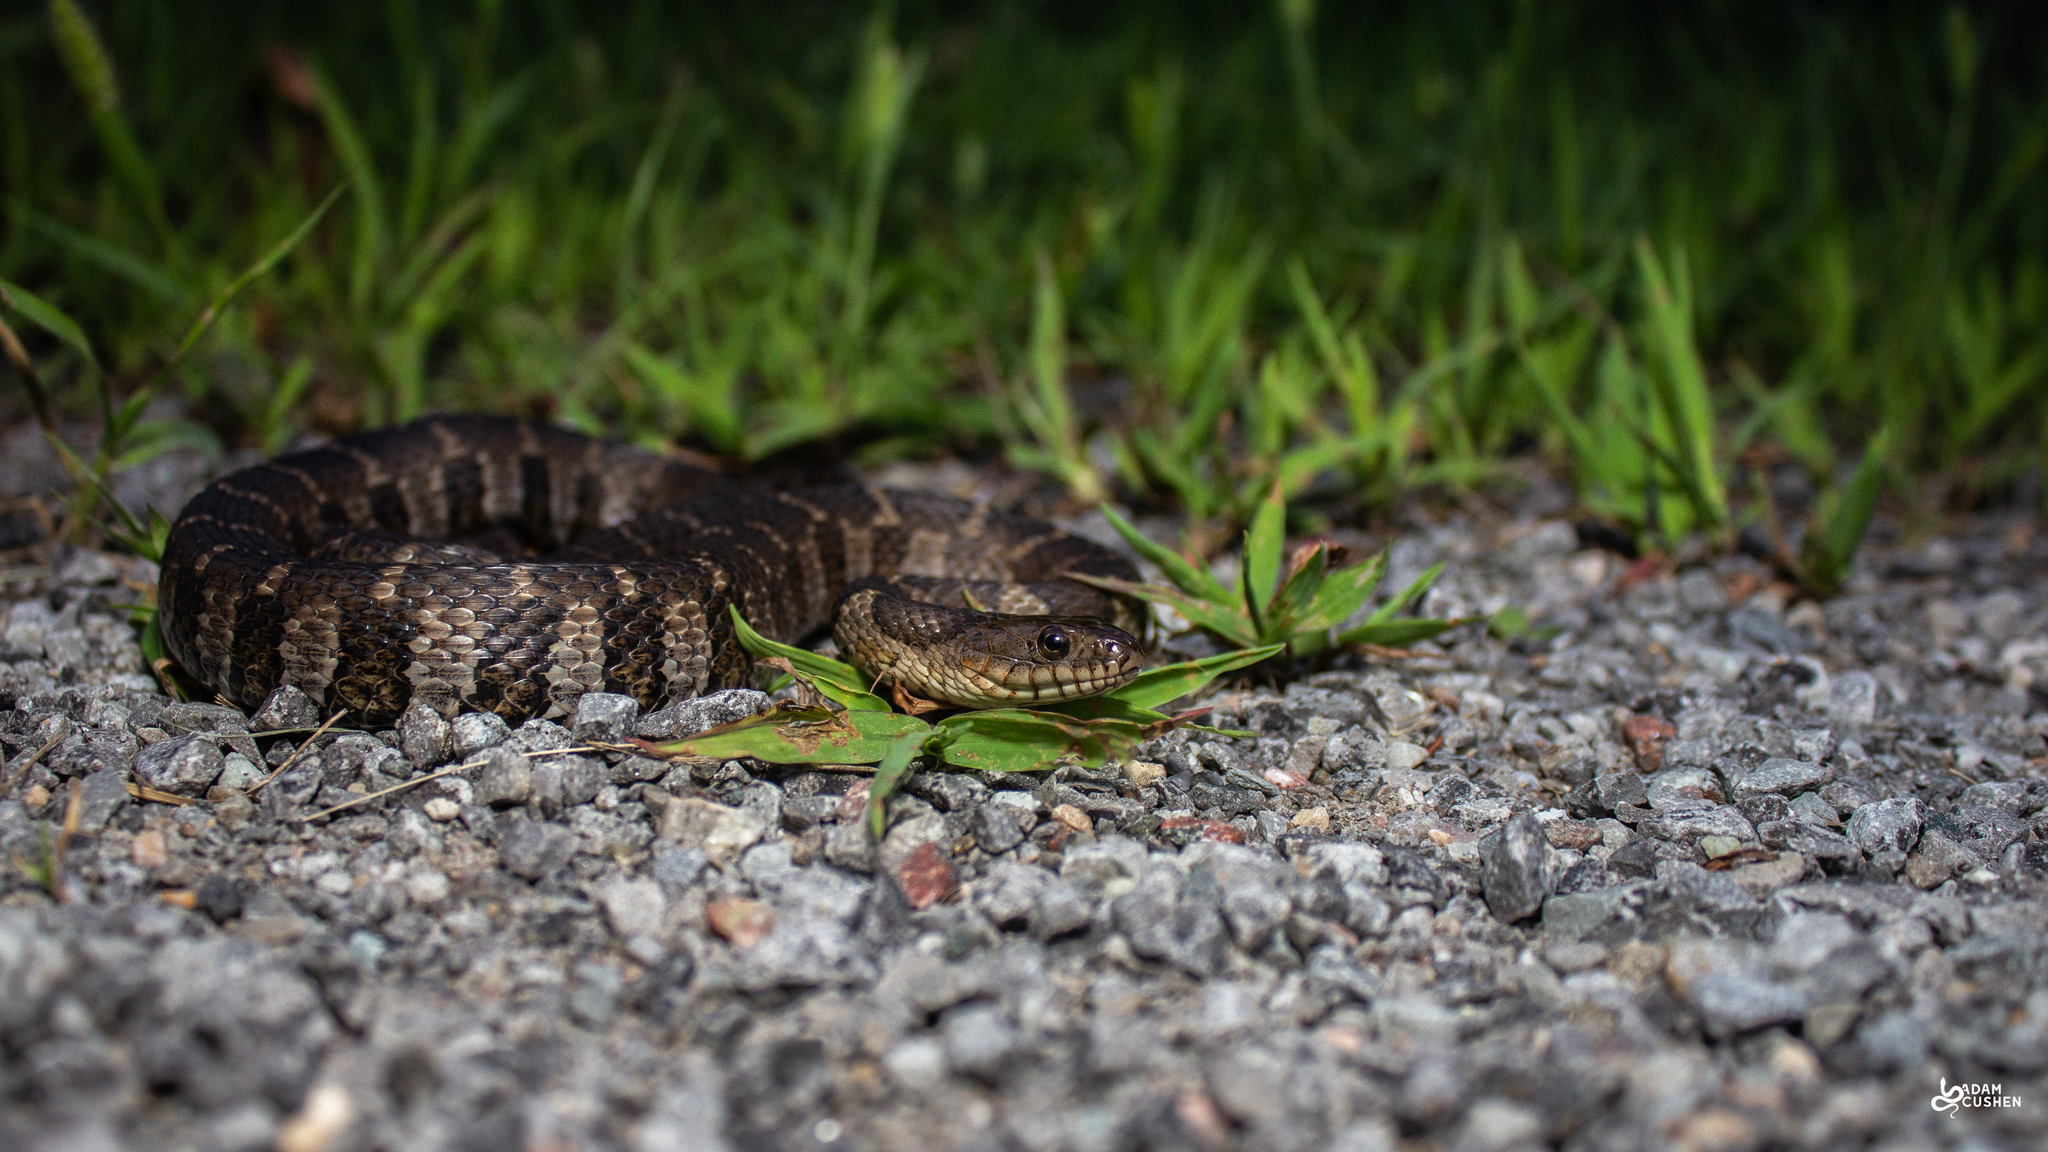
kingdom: Animalia
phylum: Chordata
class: Squamata
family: Colubridae
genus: Nerodia
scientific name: Nerodia sipedon
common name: Northern water snake
